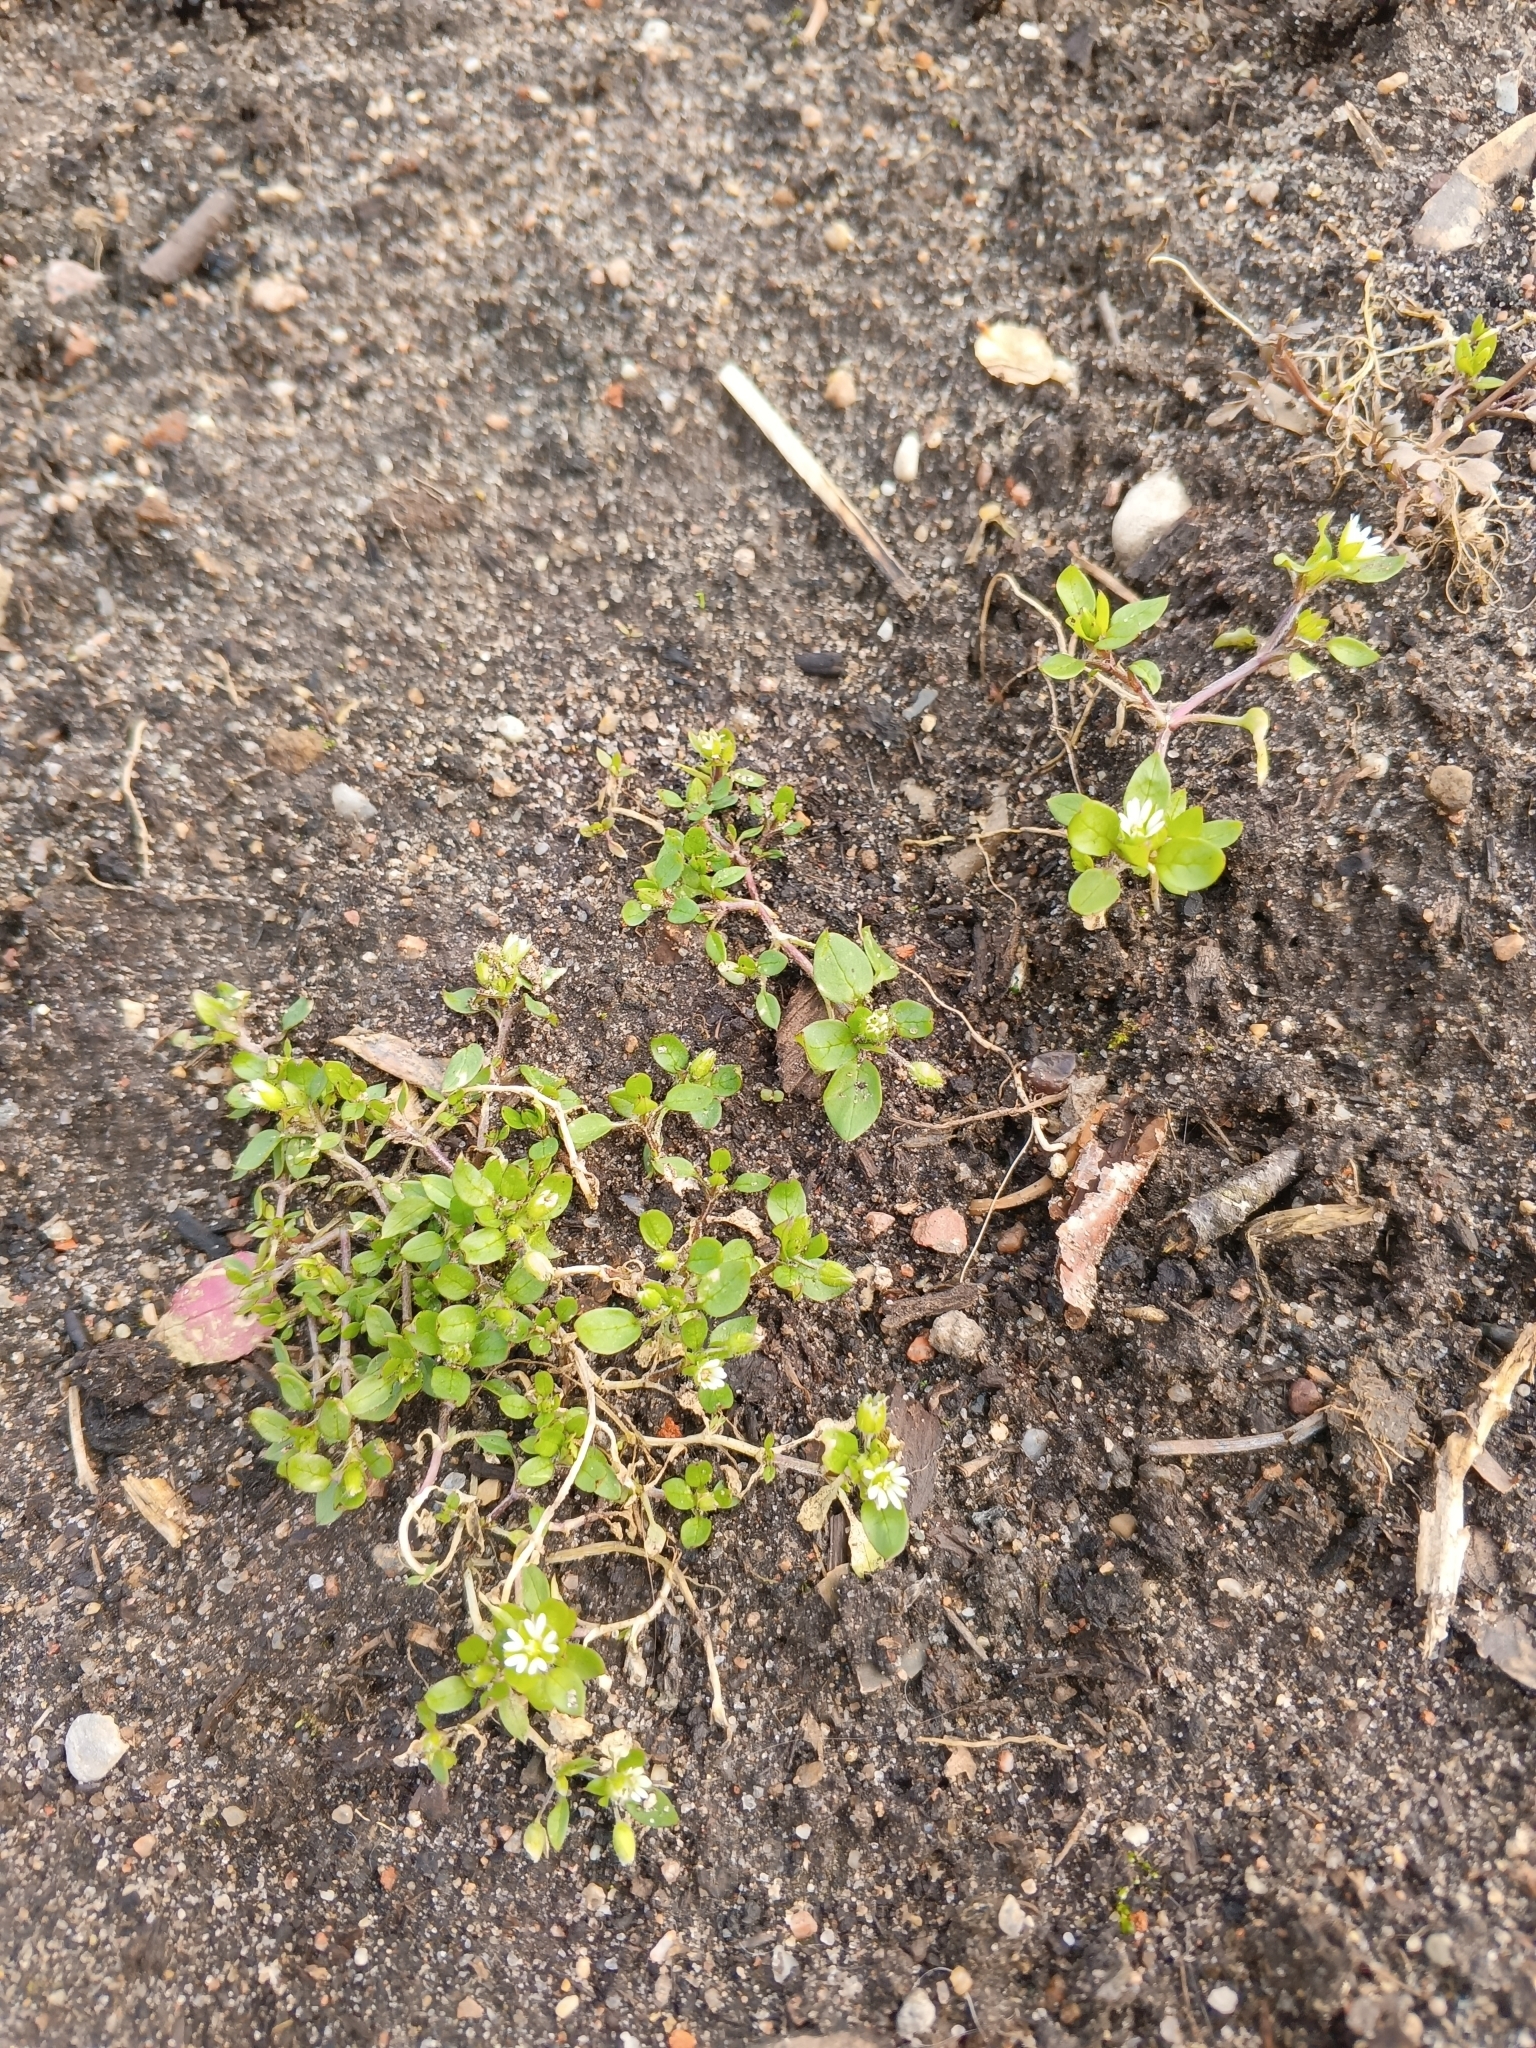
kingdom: Plantae
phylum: Tracheophyta
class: Magnoliopsida
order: Caryophyllales
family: Caryophyllaceae
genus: Stellaria
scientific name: Stellaria media
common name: Common chickweed
